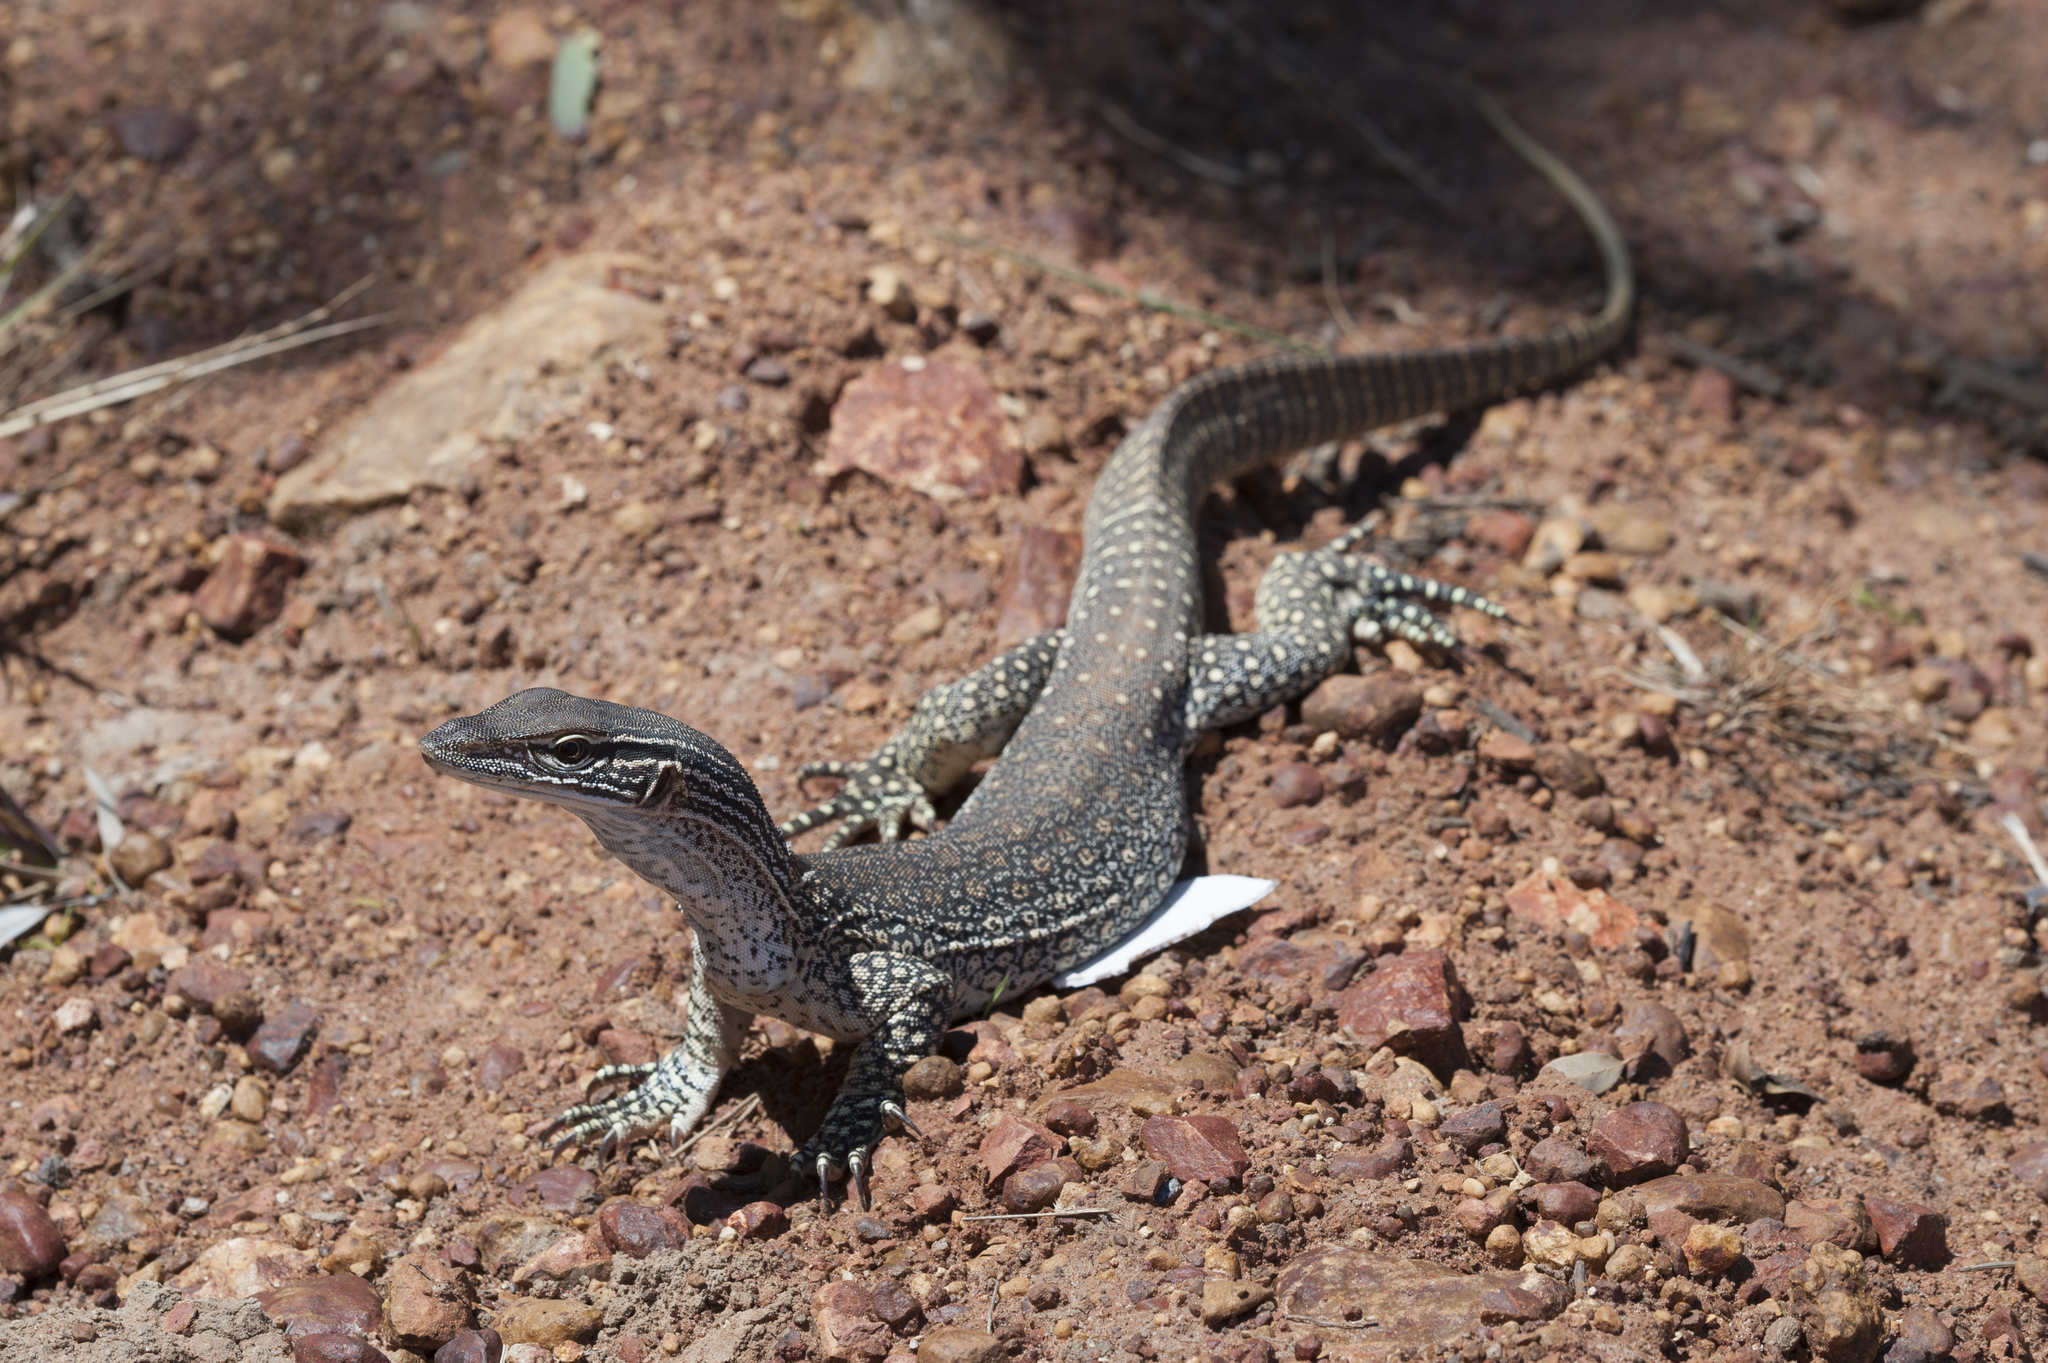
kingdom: Animalia
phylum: Chordata
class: Squamata
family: Varanidae
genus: Varanus
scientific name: Varanus gouldii
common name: Gould's goanna
